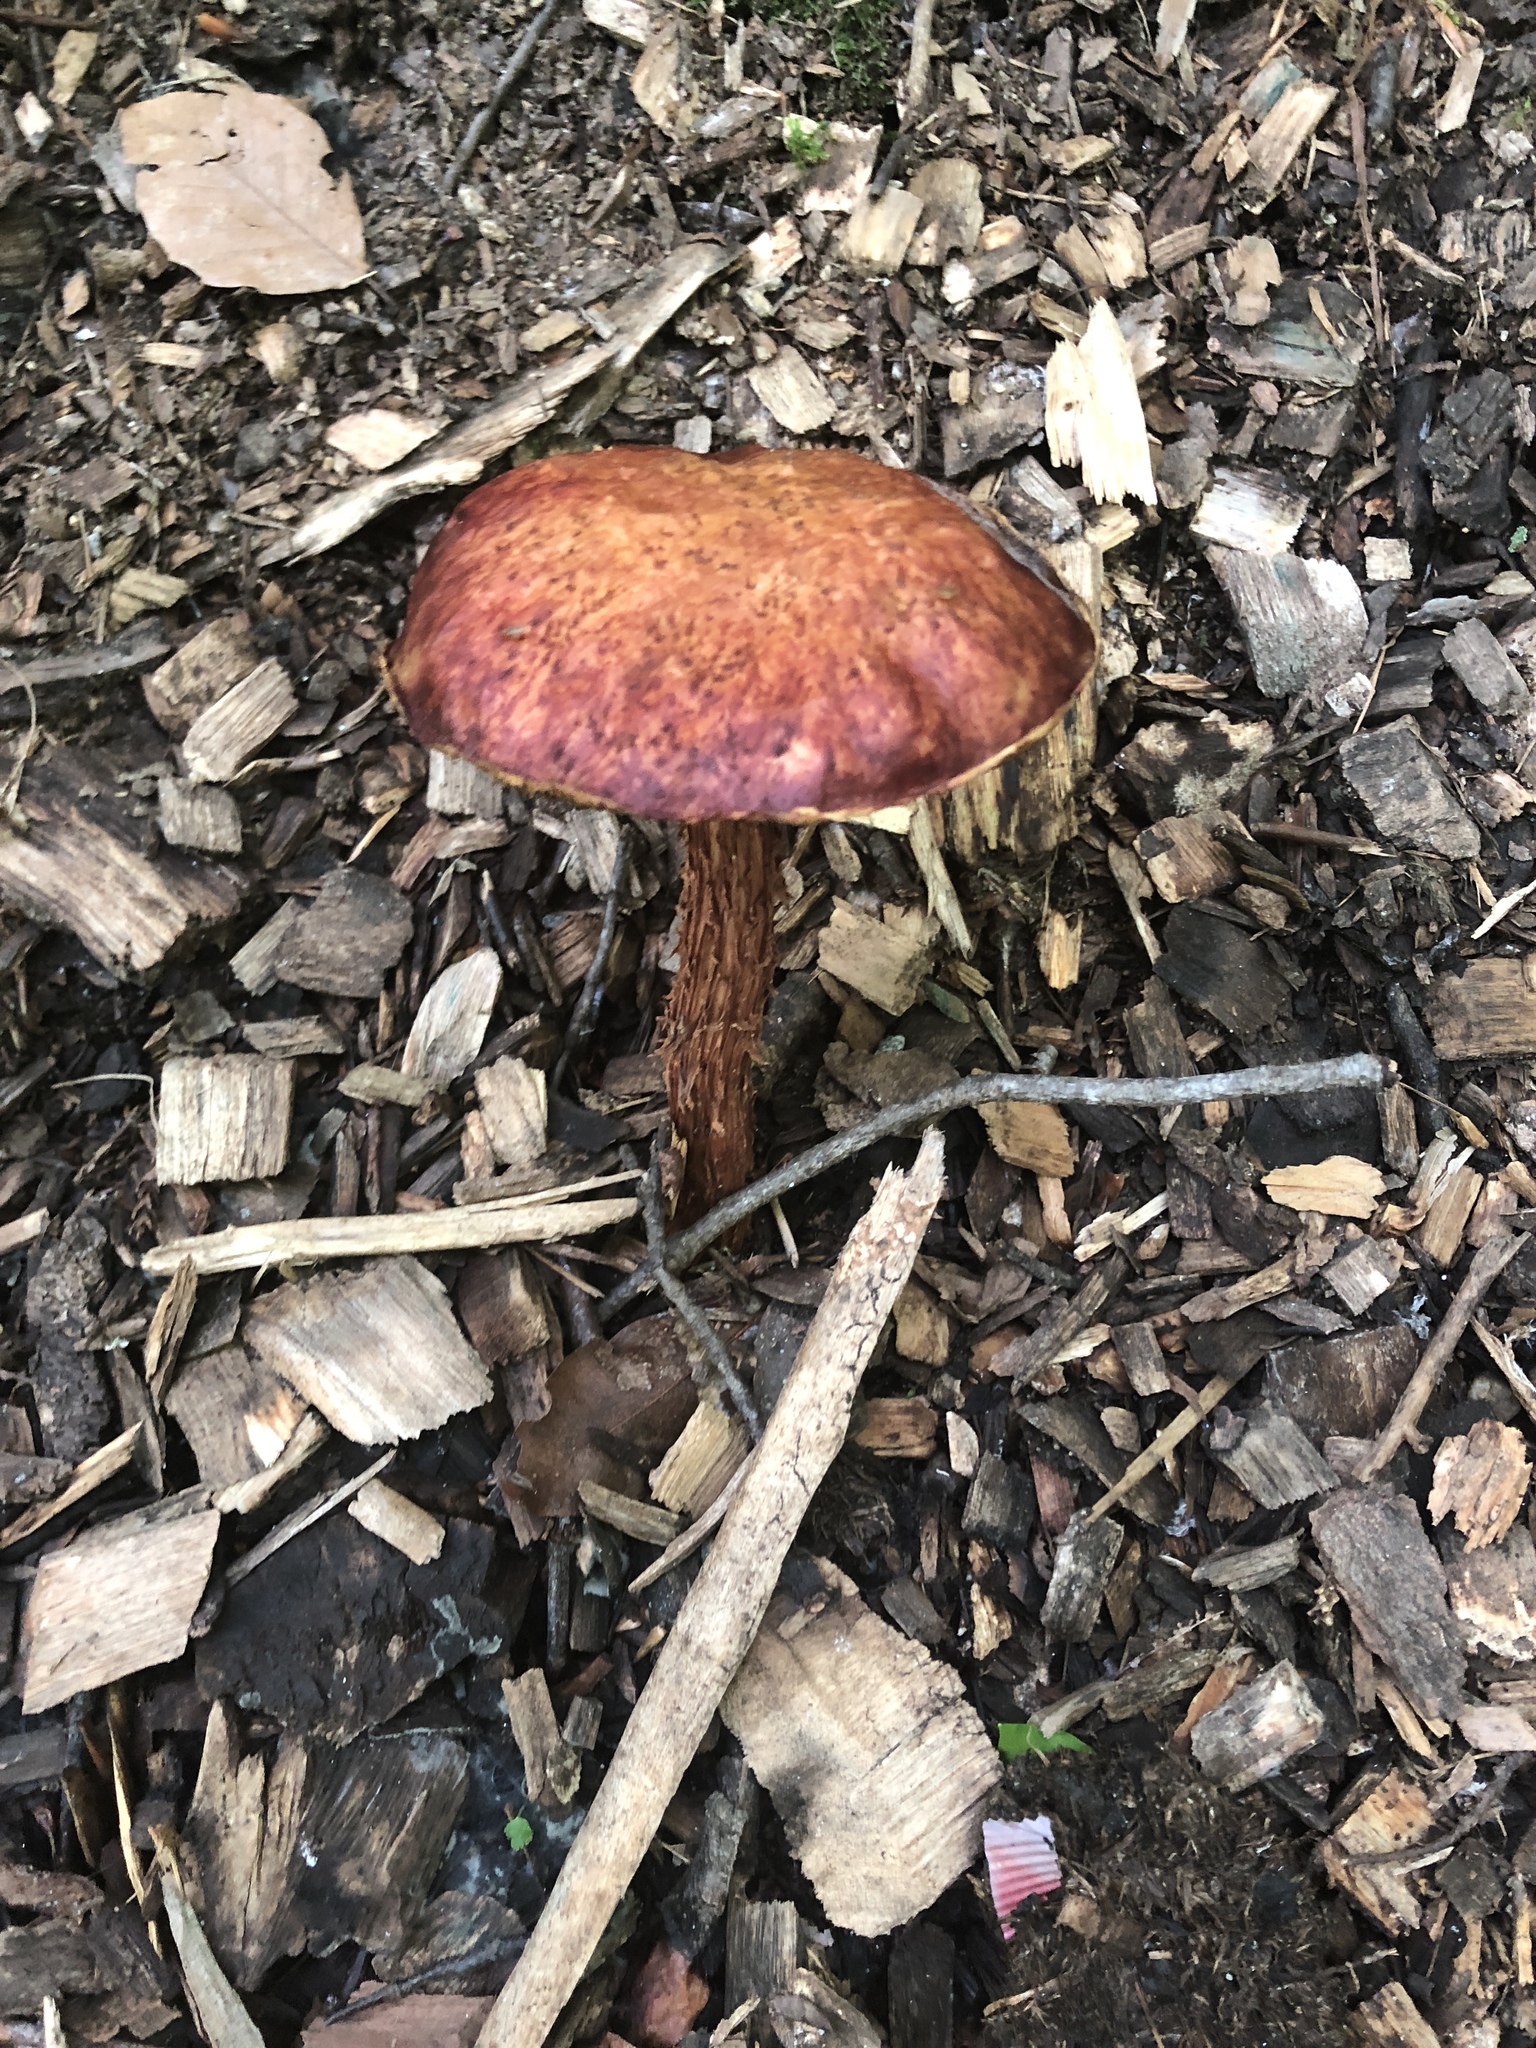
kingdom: Fungi
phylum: Basidiomycota
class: Agaricomycetes
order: Boletales
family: Boletaceae
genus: Aureoboletus
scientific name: Aureoboletus russellii
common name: Russell's bolete
